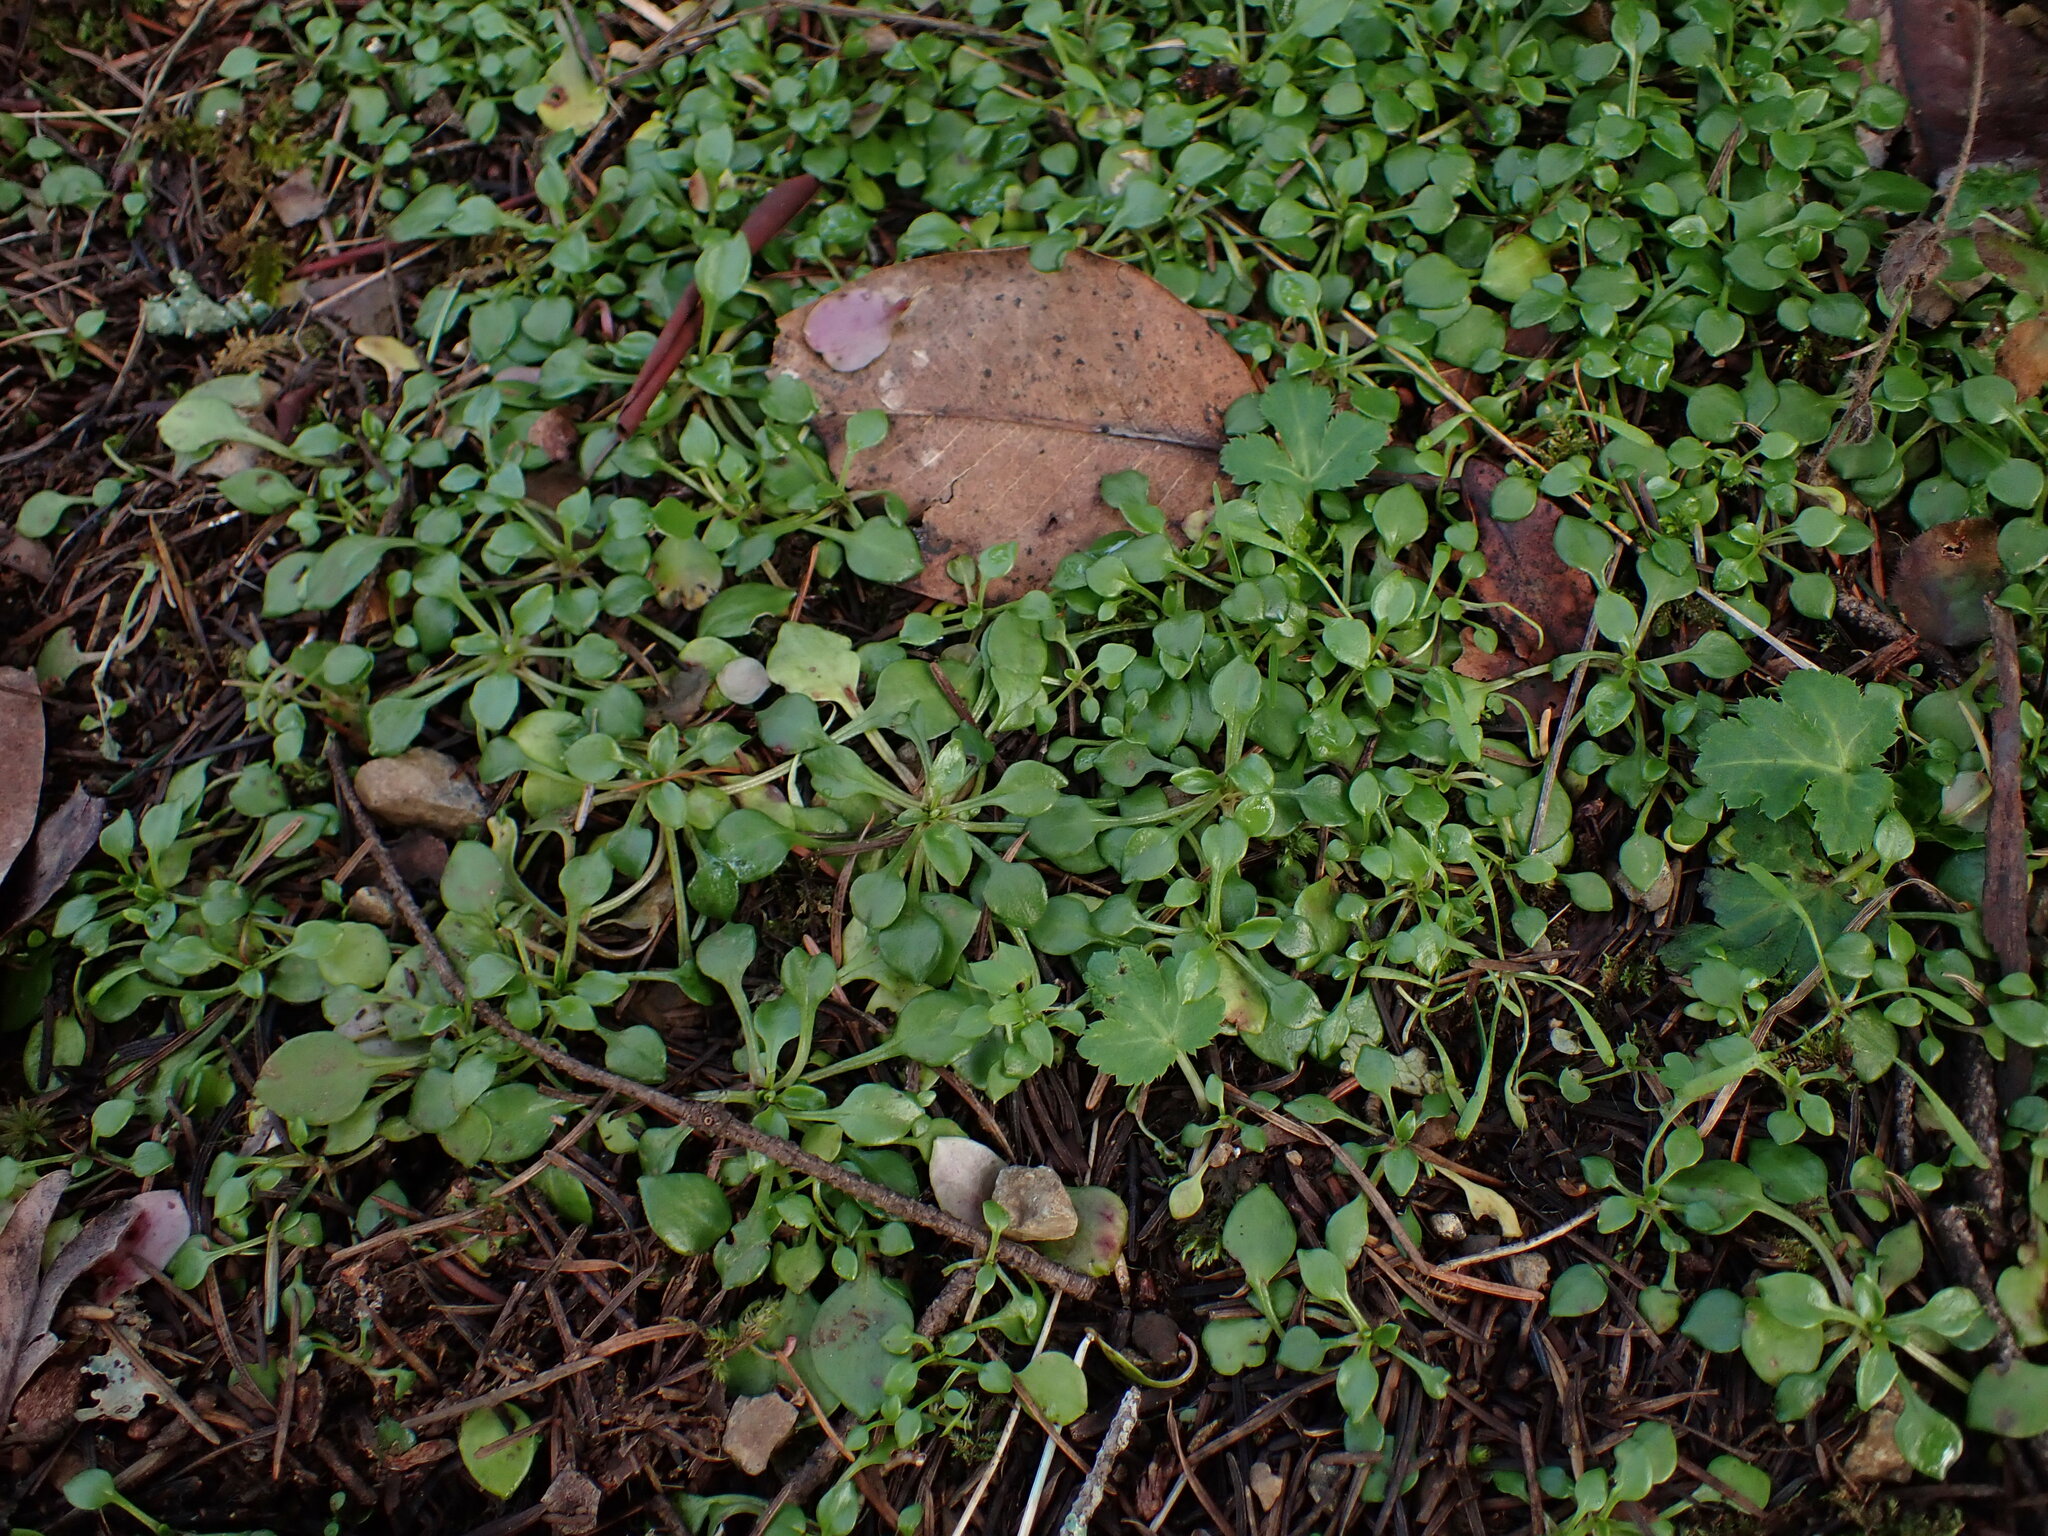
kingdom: Plantae
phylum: Tracheophyta
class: Magnoliopsida
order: Caryophyllales
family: Montiaceae
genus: Montia
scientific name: Montia parvifolia
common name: Small-leaved blinks
